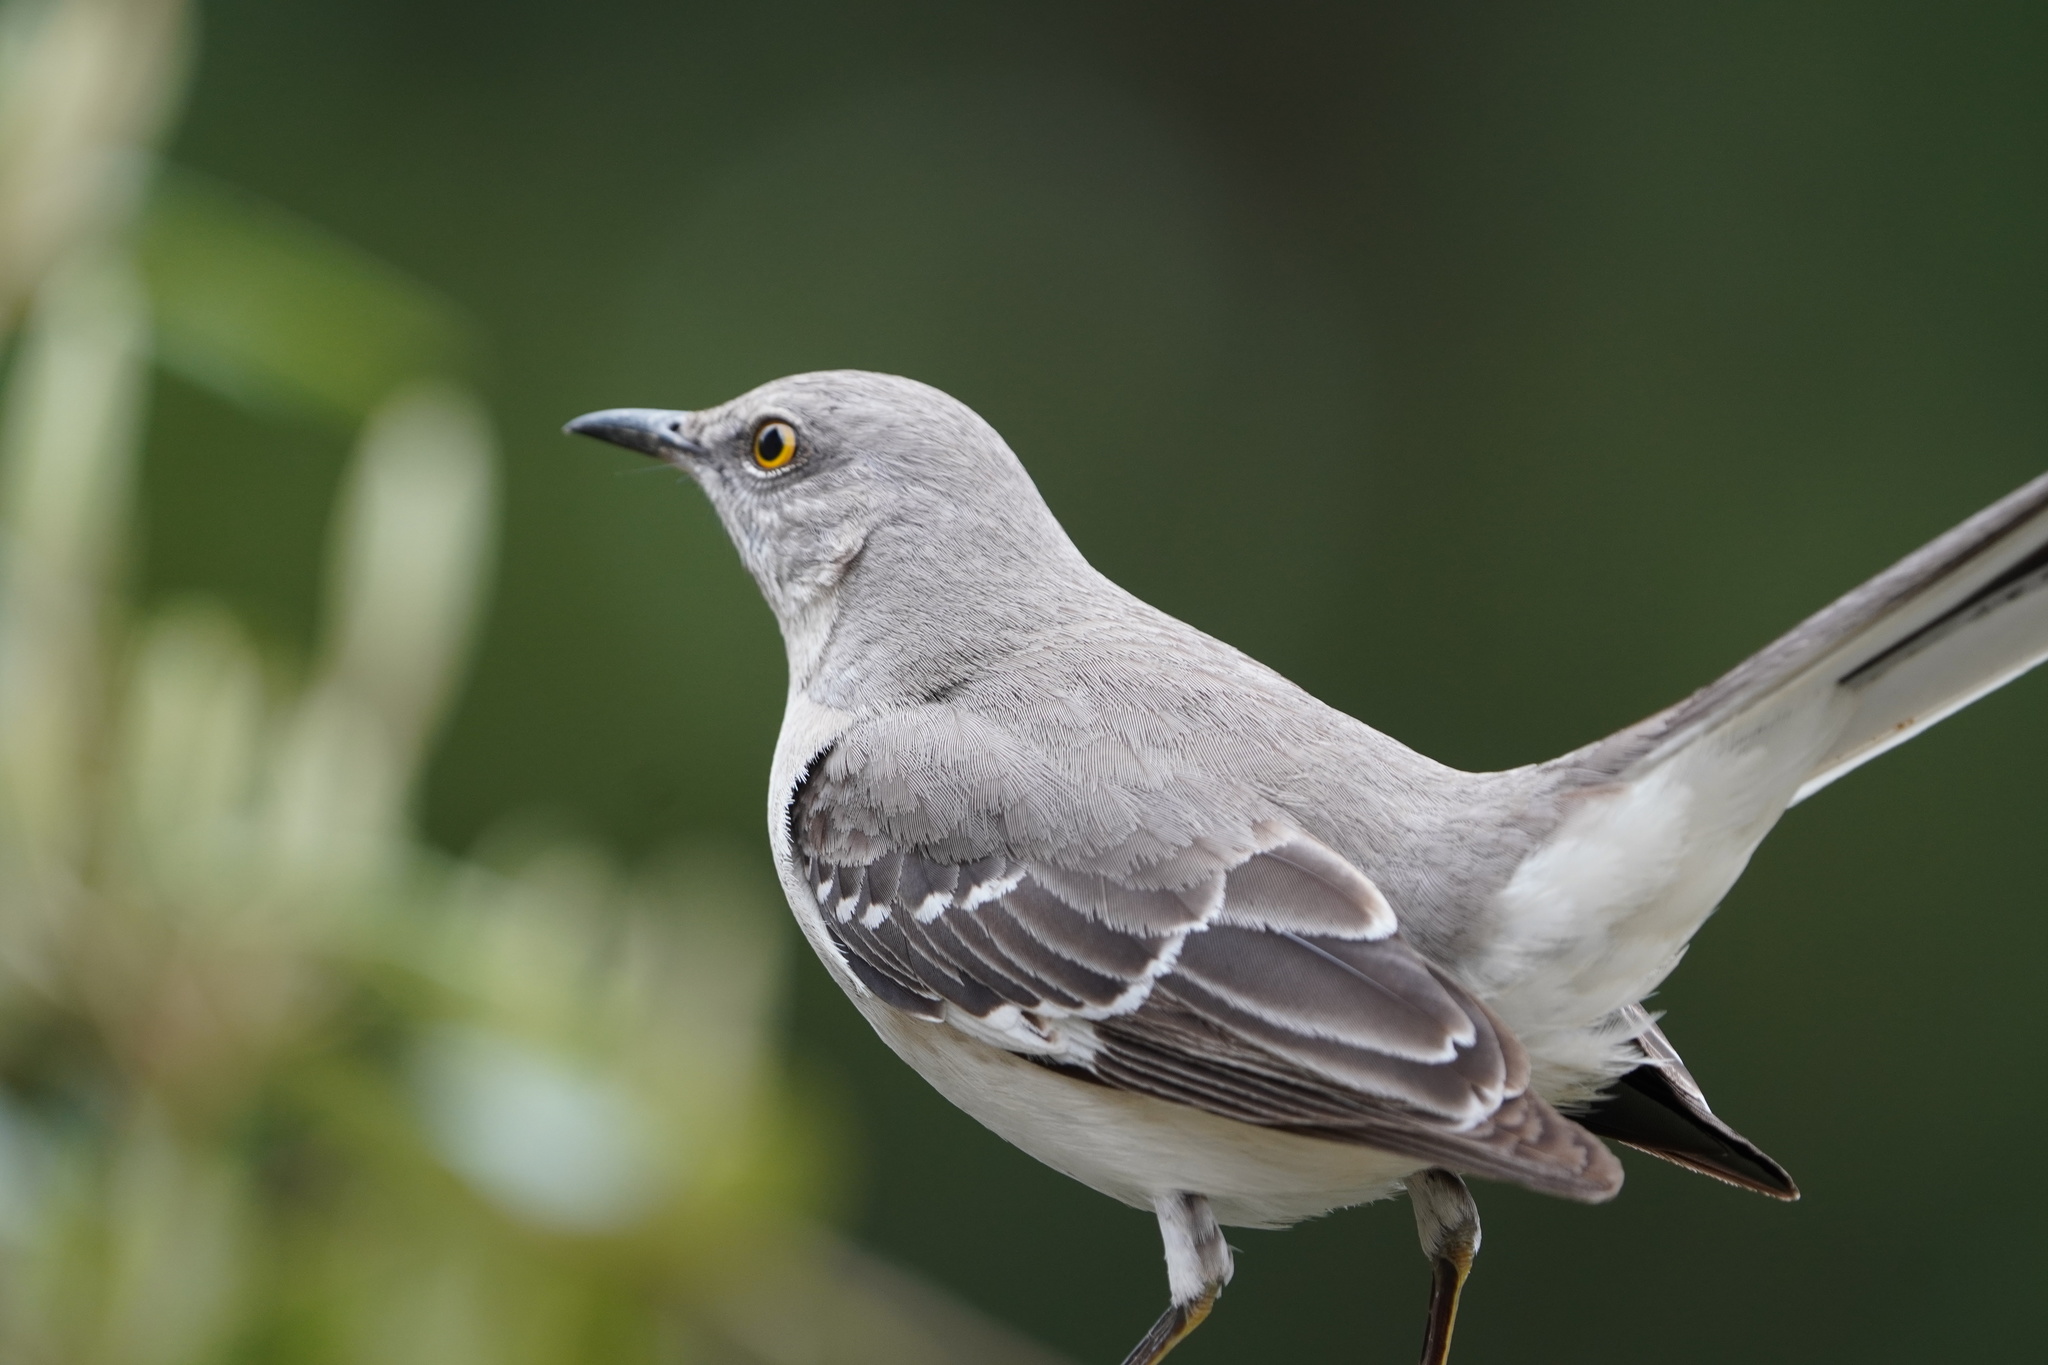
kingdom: Animalia
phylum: Chordata
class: Aves
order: Passeriformes
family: Mimidae
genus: Mimus
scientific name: Mimus polyglottos
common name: Northern mockingbird
